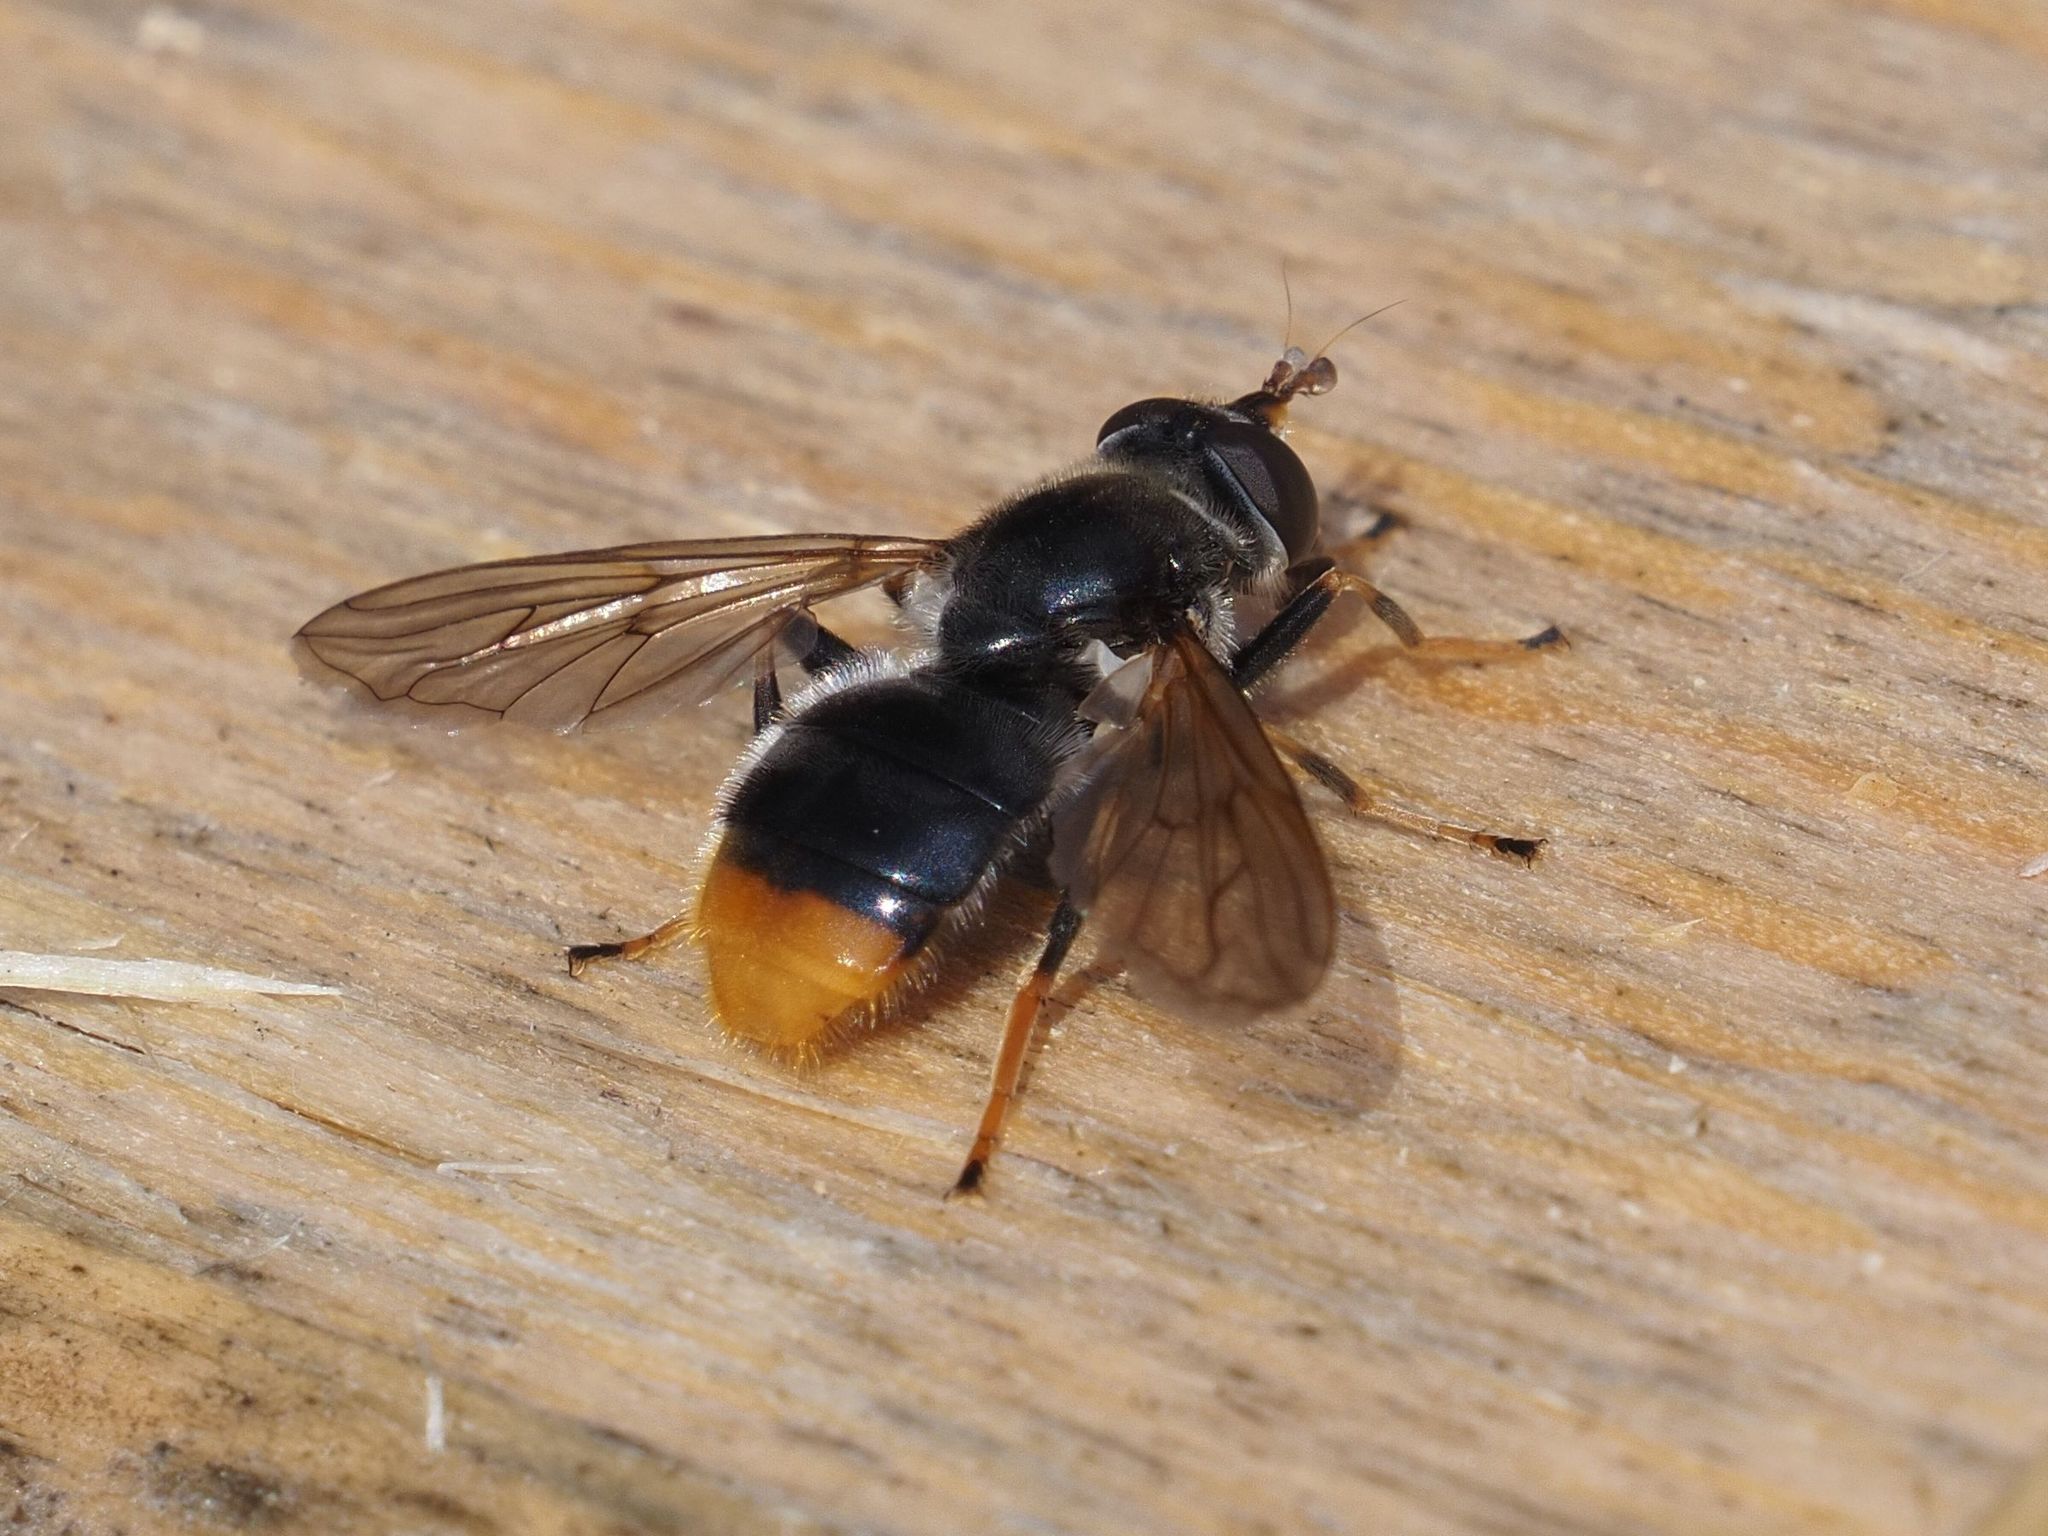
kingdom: Animalia
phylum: Arthropoda
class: Insecta
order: Diptera
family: Syrphidae
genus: Blera
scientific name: Blera fallax
